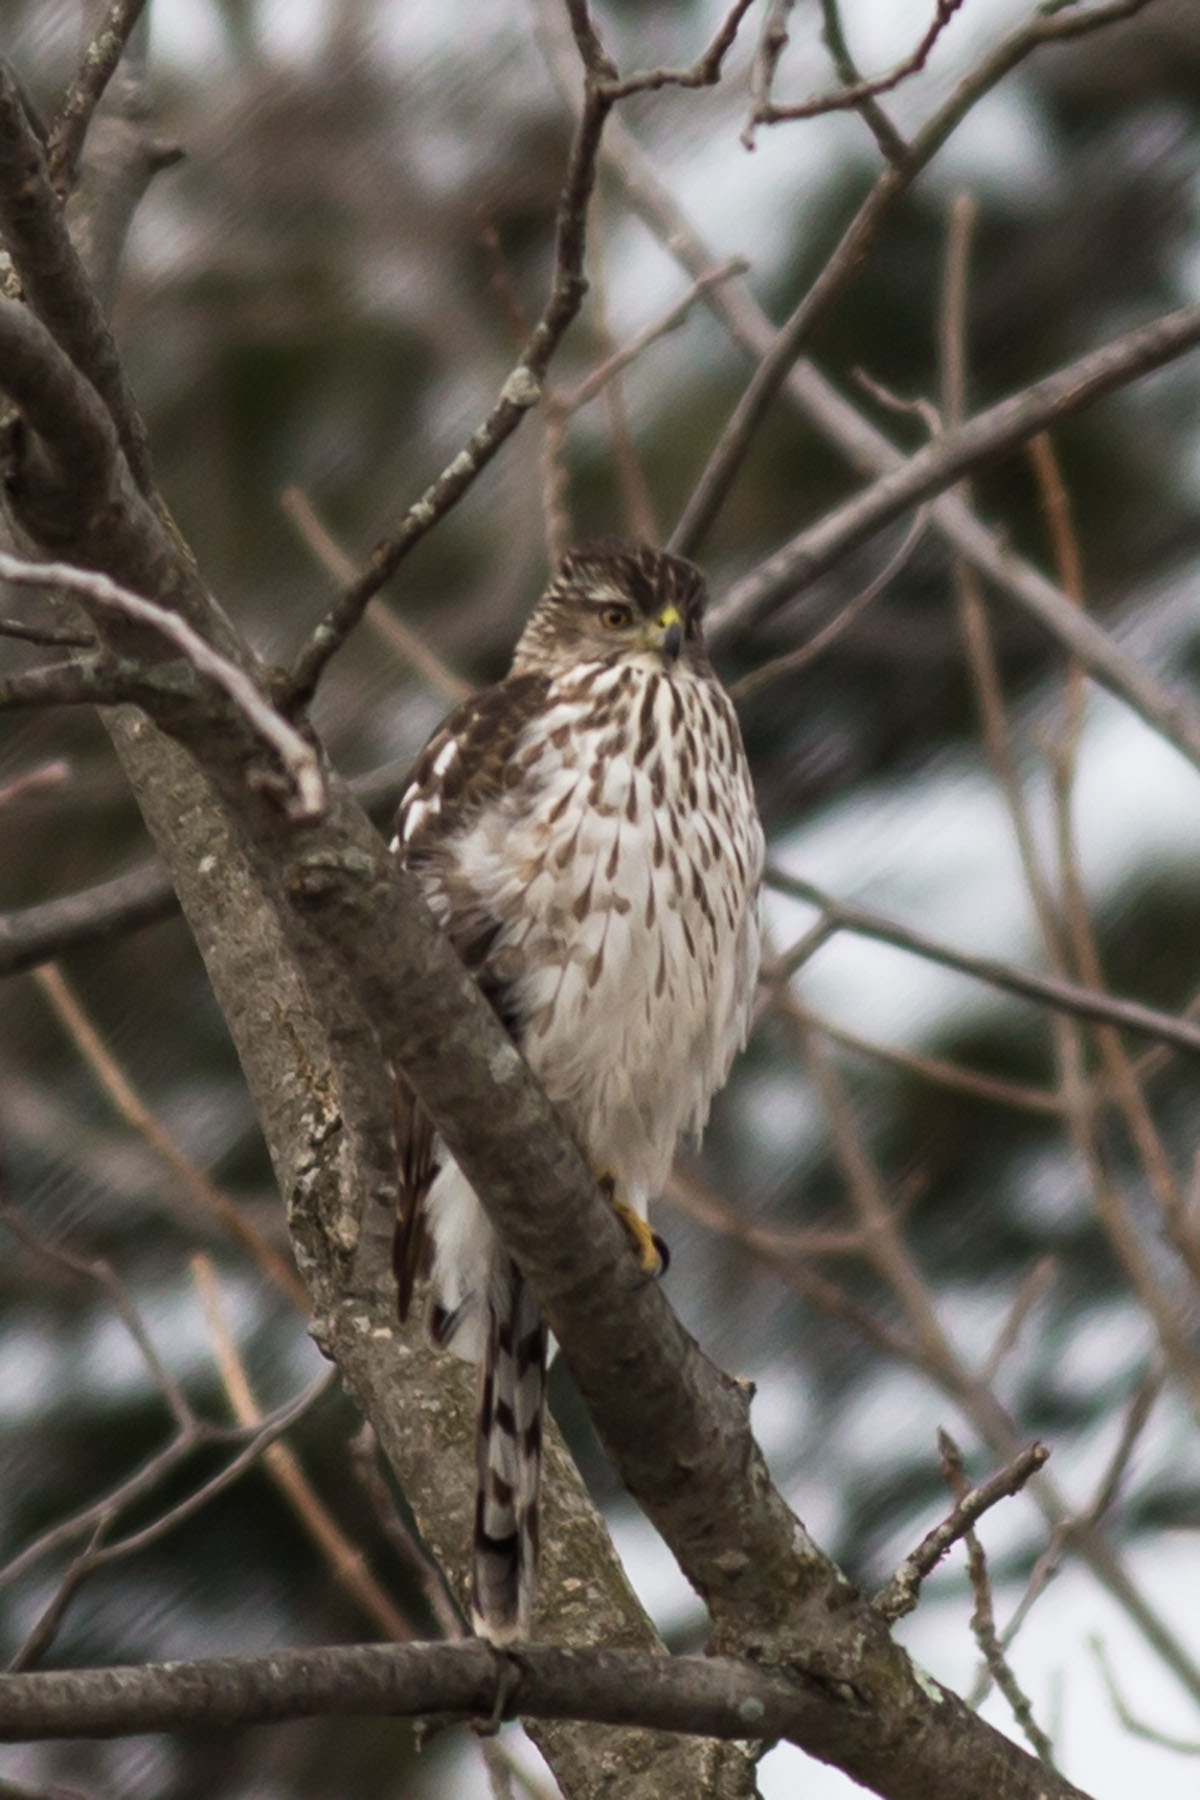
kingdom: Animalia
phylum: Chordata
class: Aves
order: Accipitriformes
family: Accipitridae
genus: Accipiter
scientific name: Accipiter cooperii
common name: Cooper's hawk
